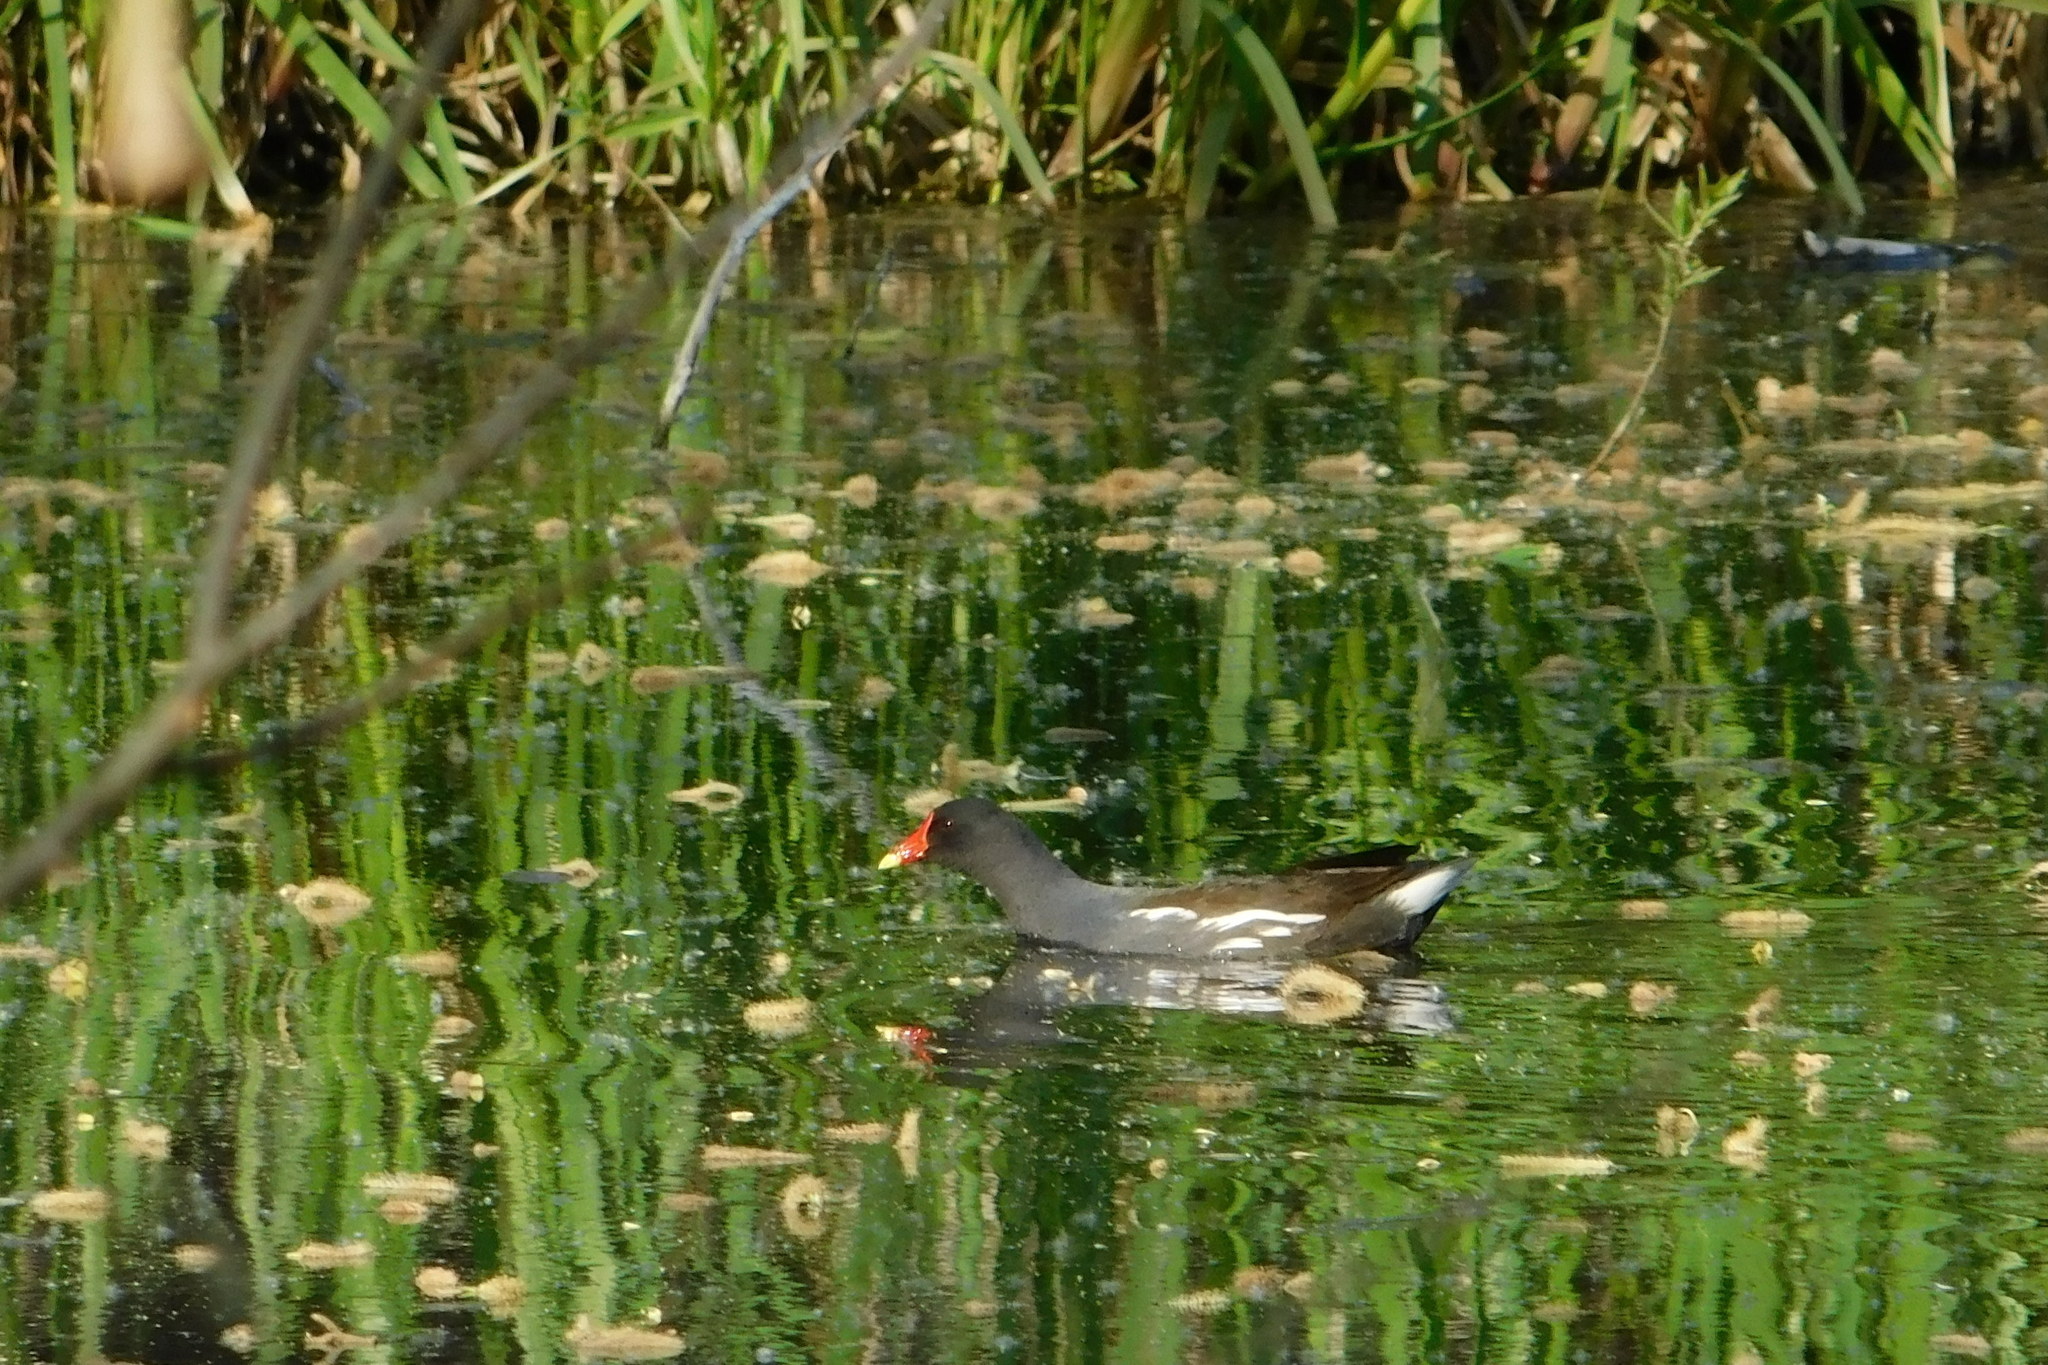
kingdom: Animalia
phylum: Chordata
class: Aves
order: Gruiformes
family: Rallidae
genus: Gallinula
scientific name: Gallinula chloropus
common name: Common moorhen
